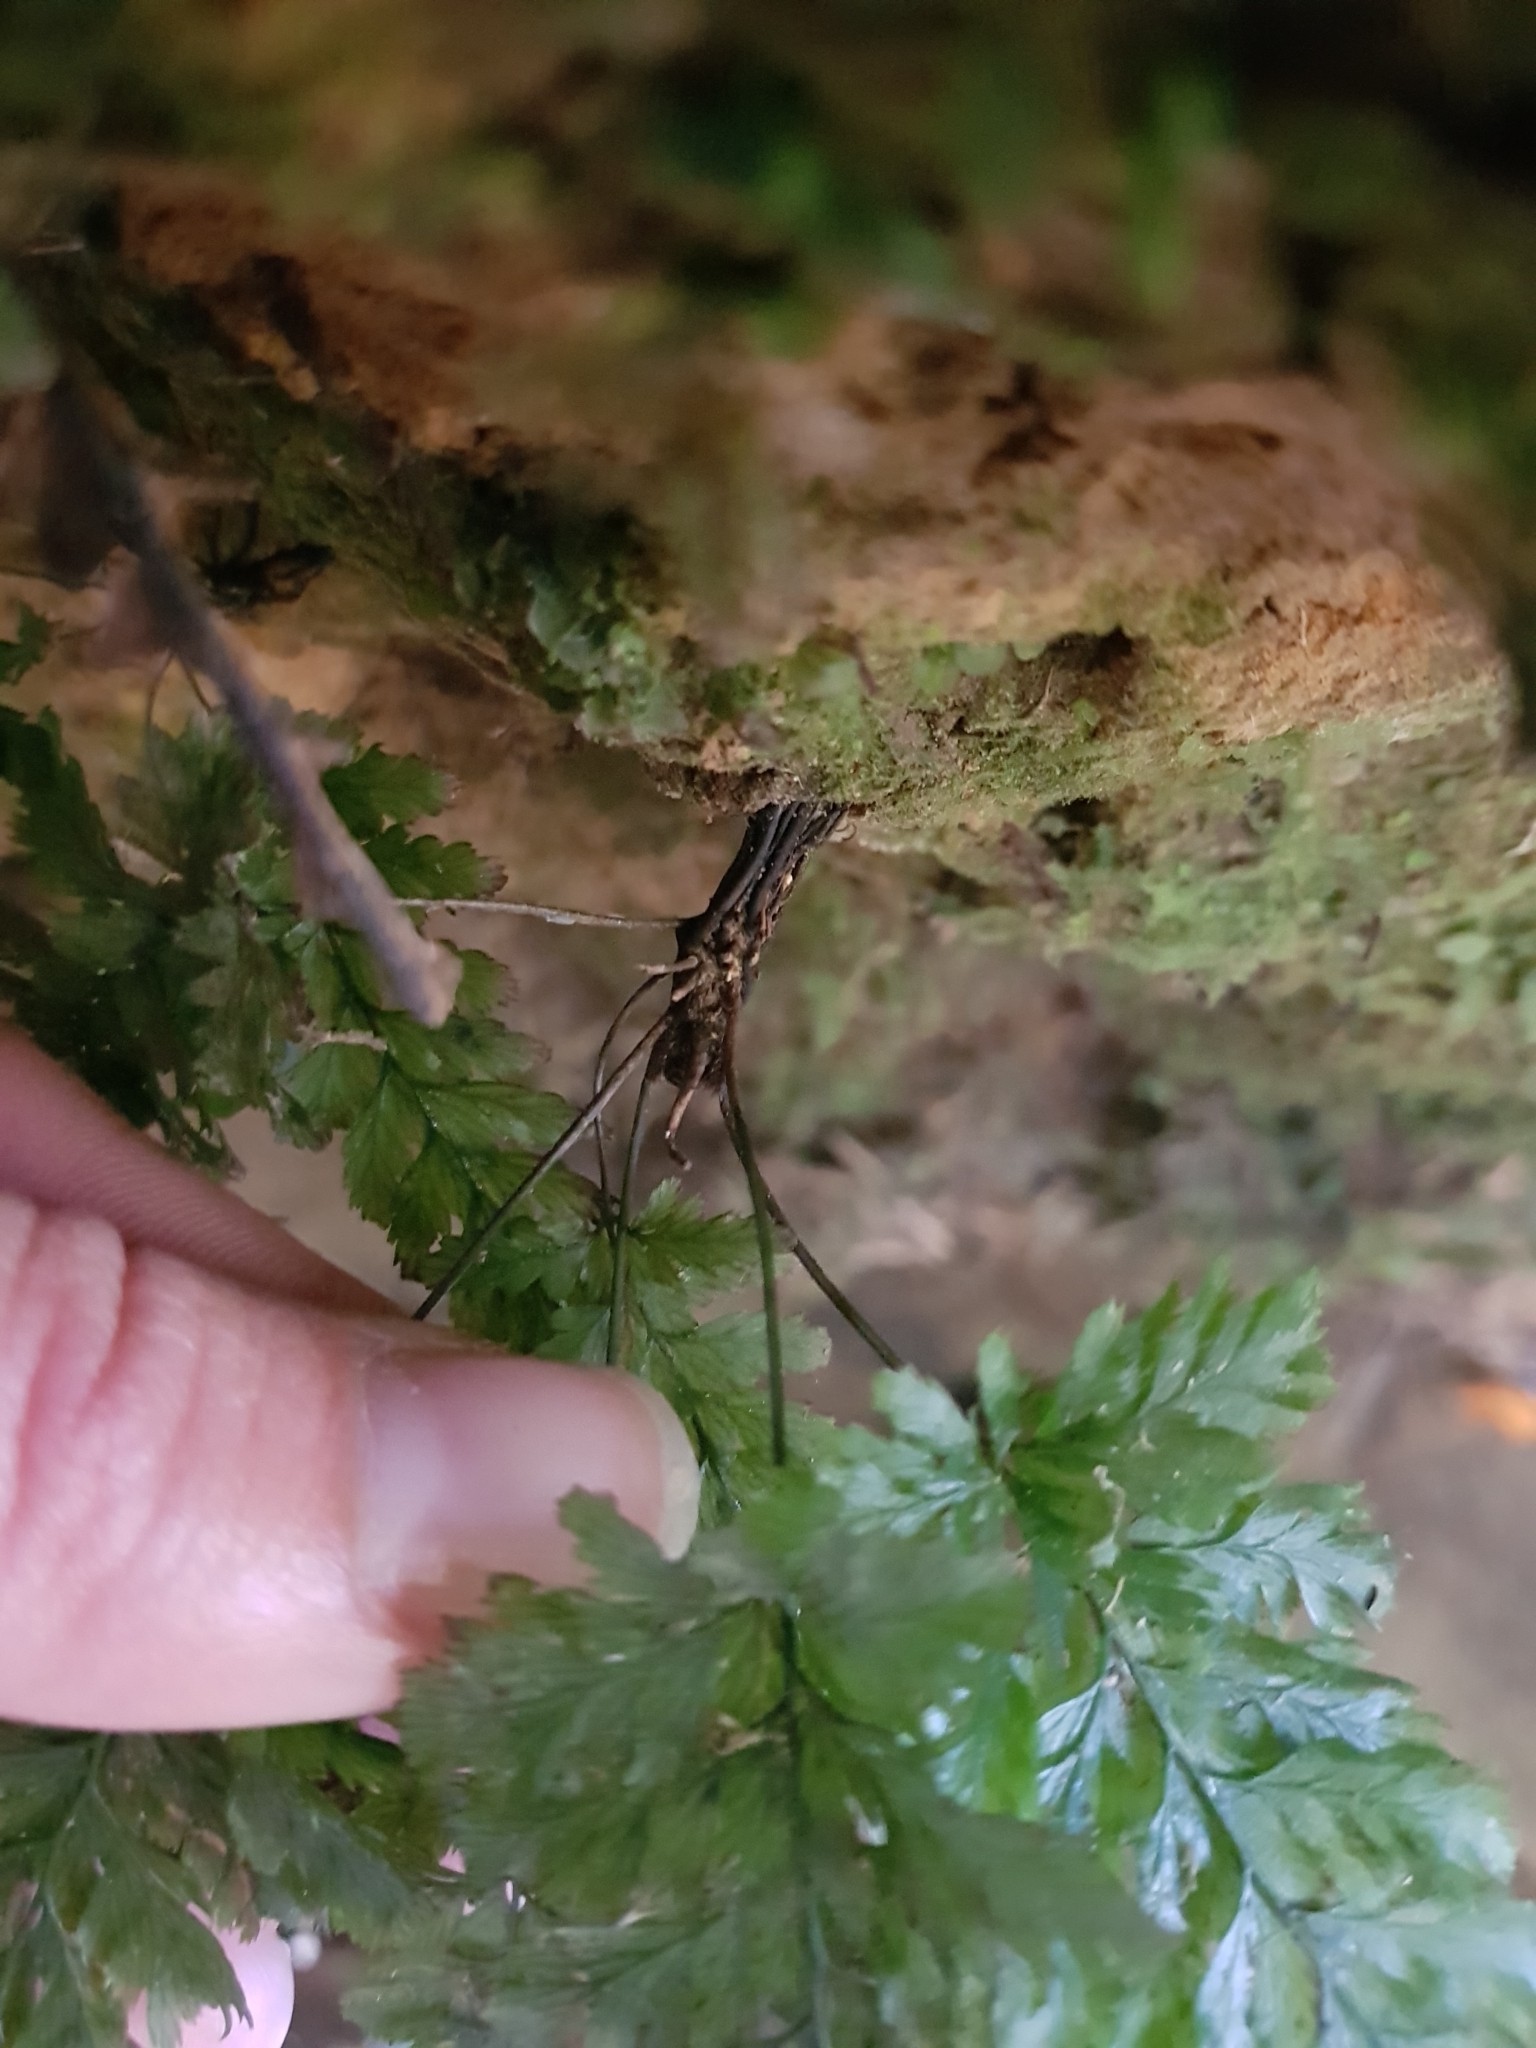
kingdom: Plantae
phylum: Tracheophyta
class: Polypodiopsida
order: Hymenophyllales
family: Hymenophyllaceae
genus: Abrodictyum
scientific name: Abrodictyum elongatum
